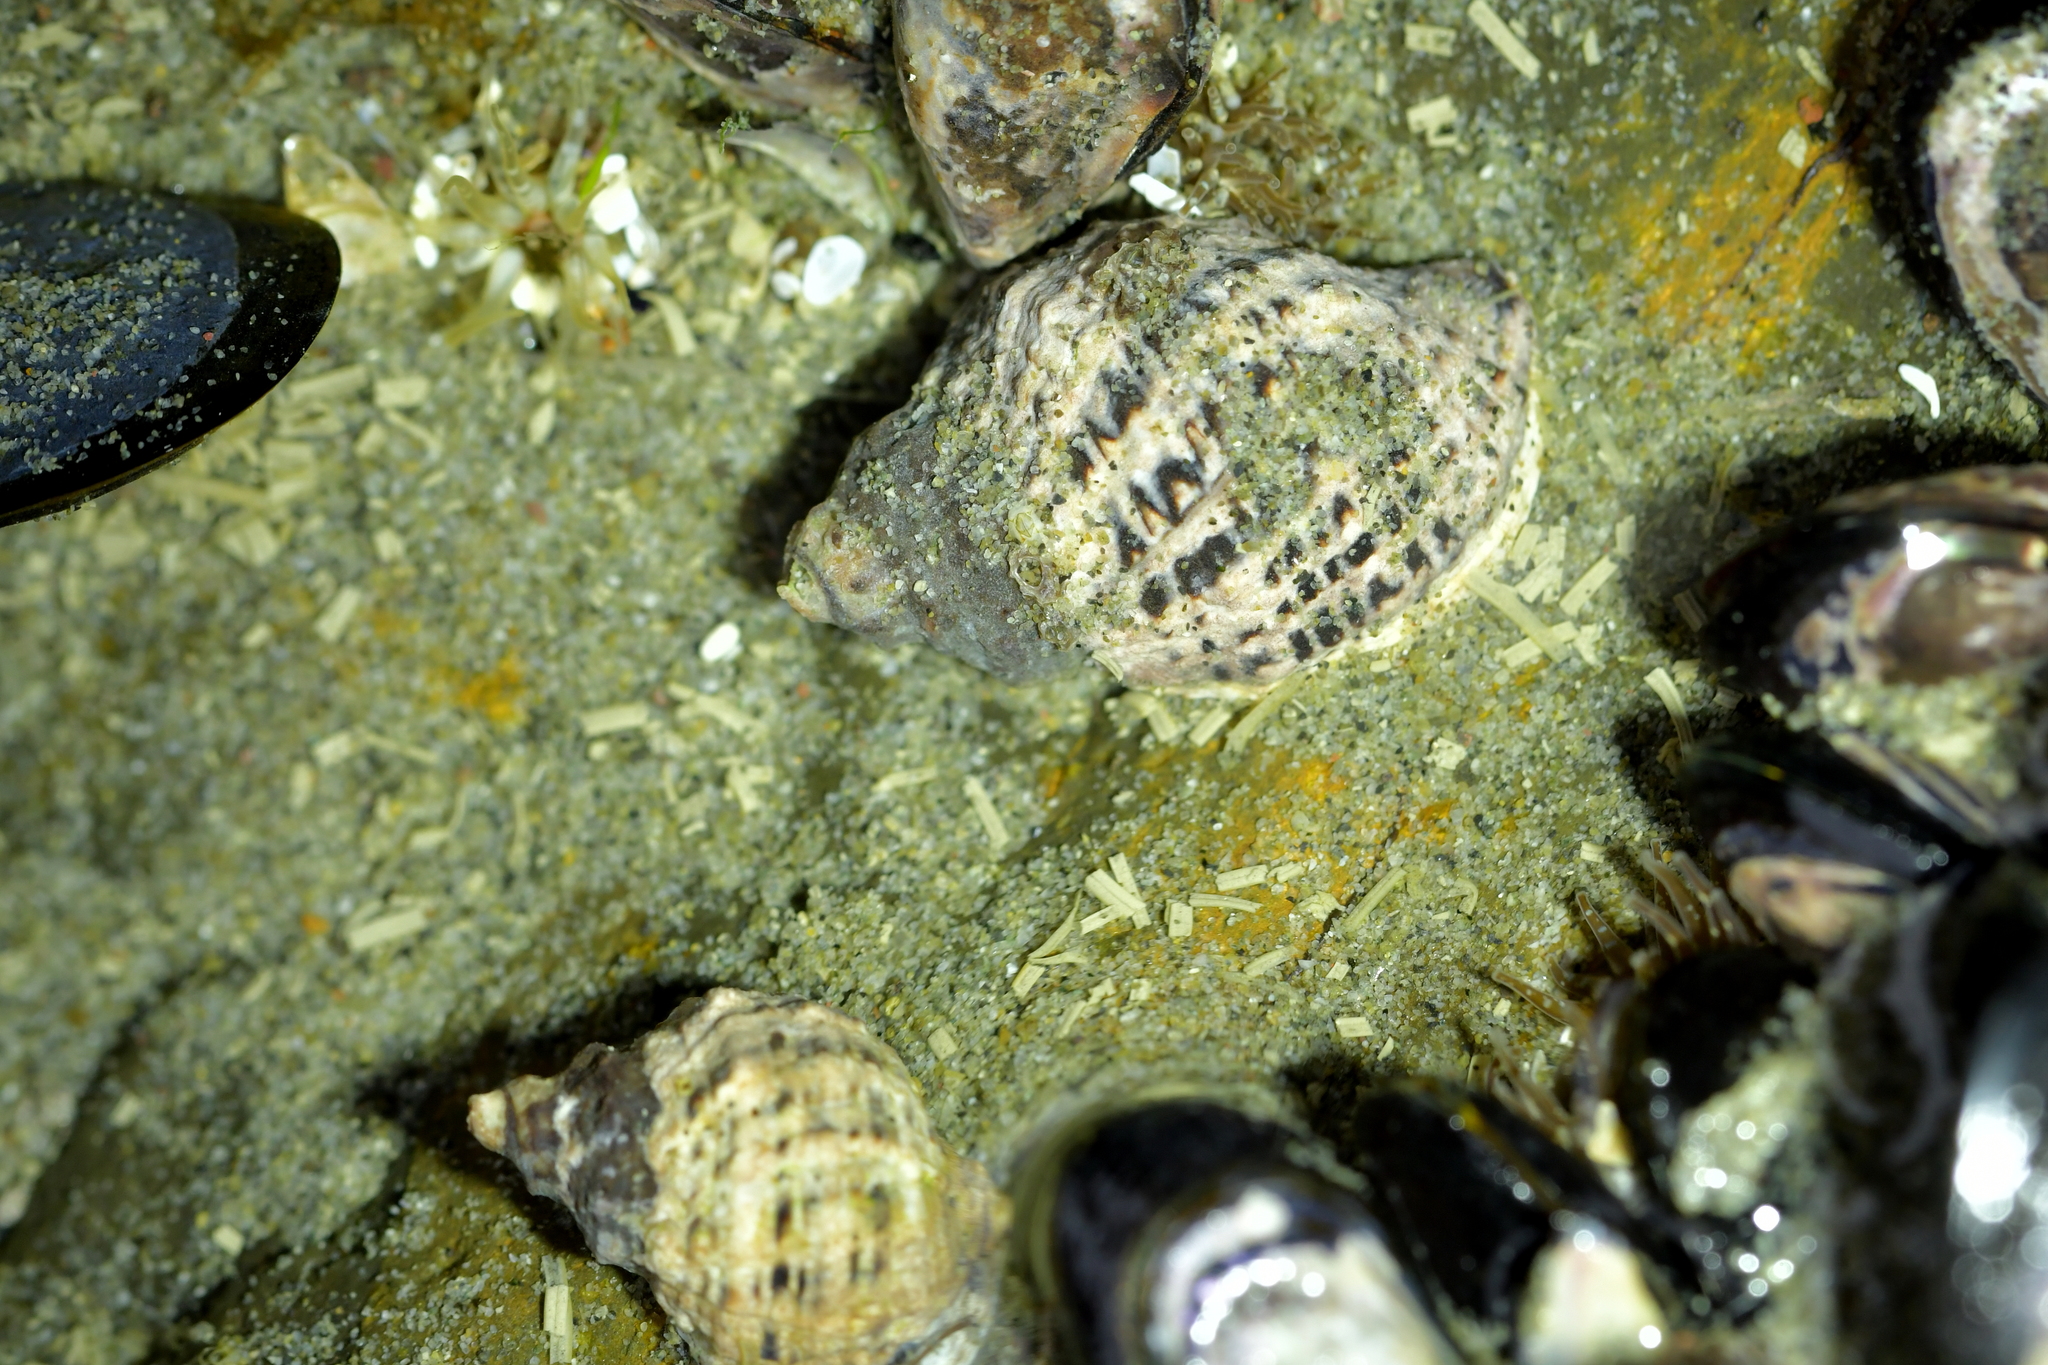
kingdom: Animalia
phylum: Mollusca
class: Gastropoda
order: Neogastropoda
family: Muricidae
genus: Haustrum
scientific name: Haustrum scobina
